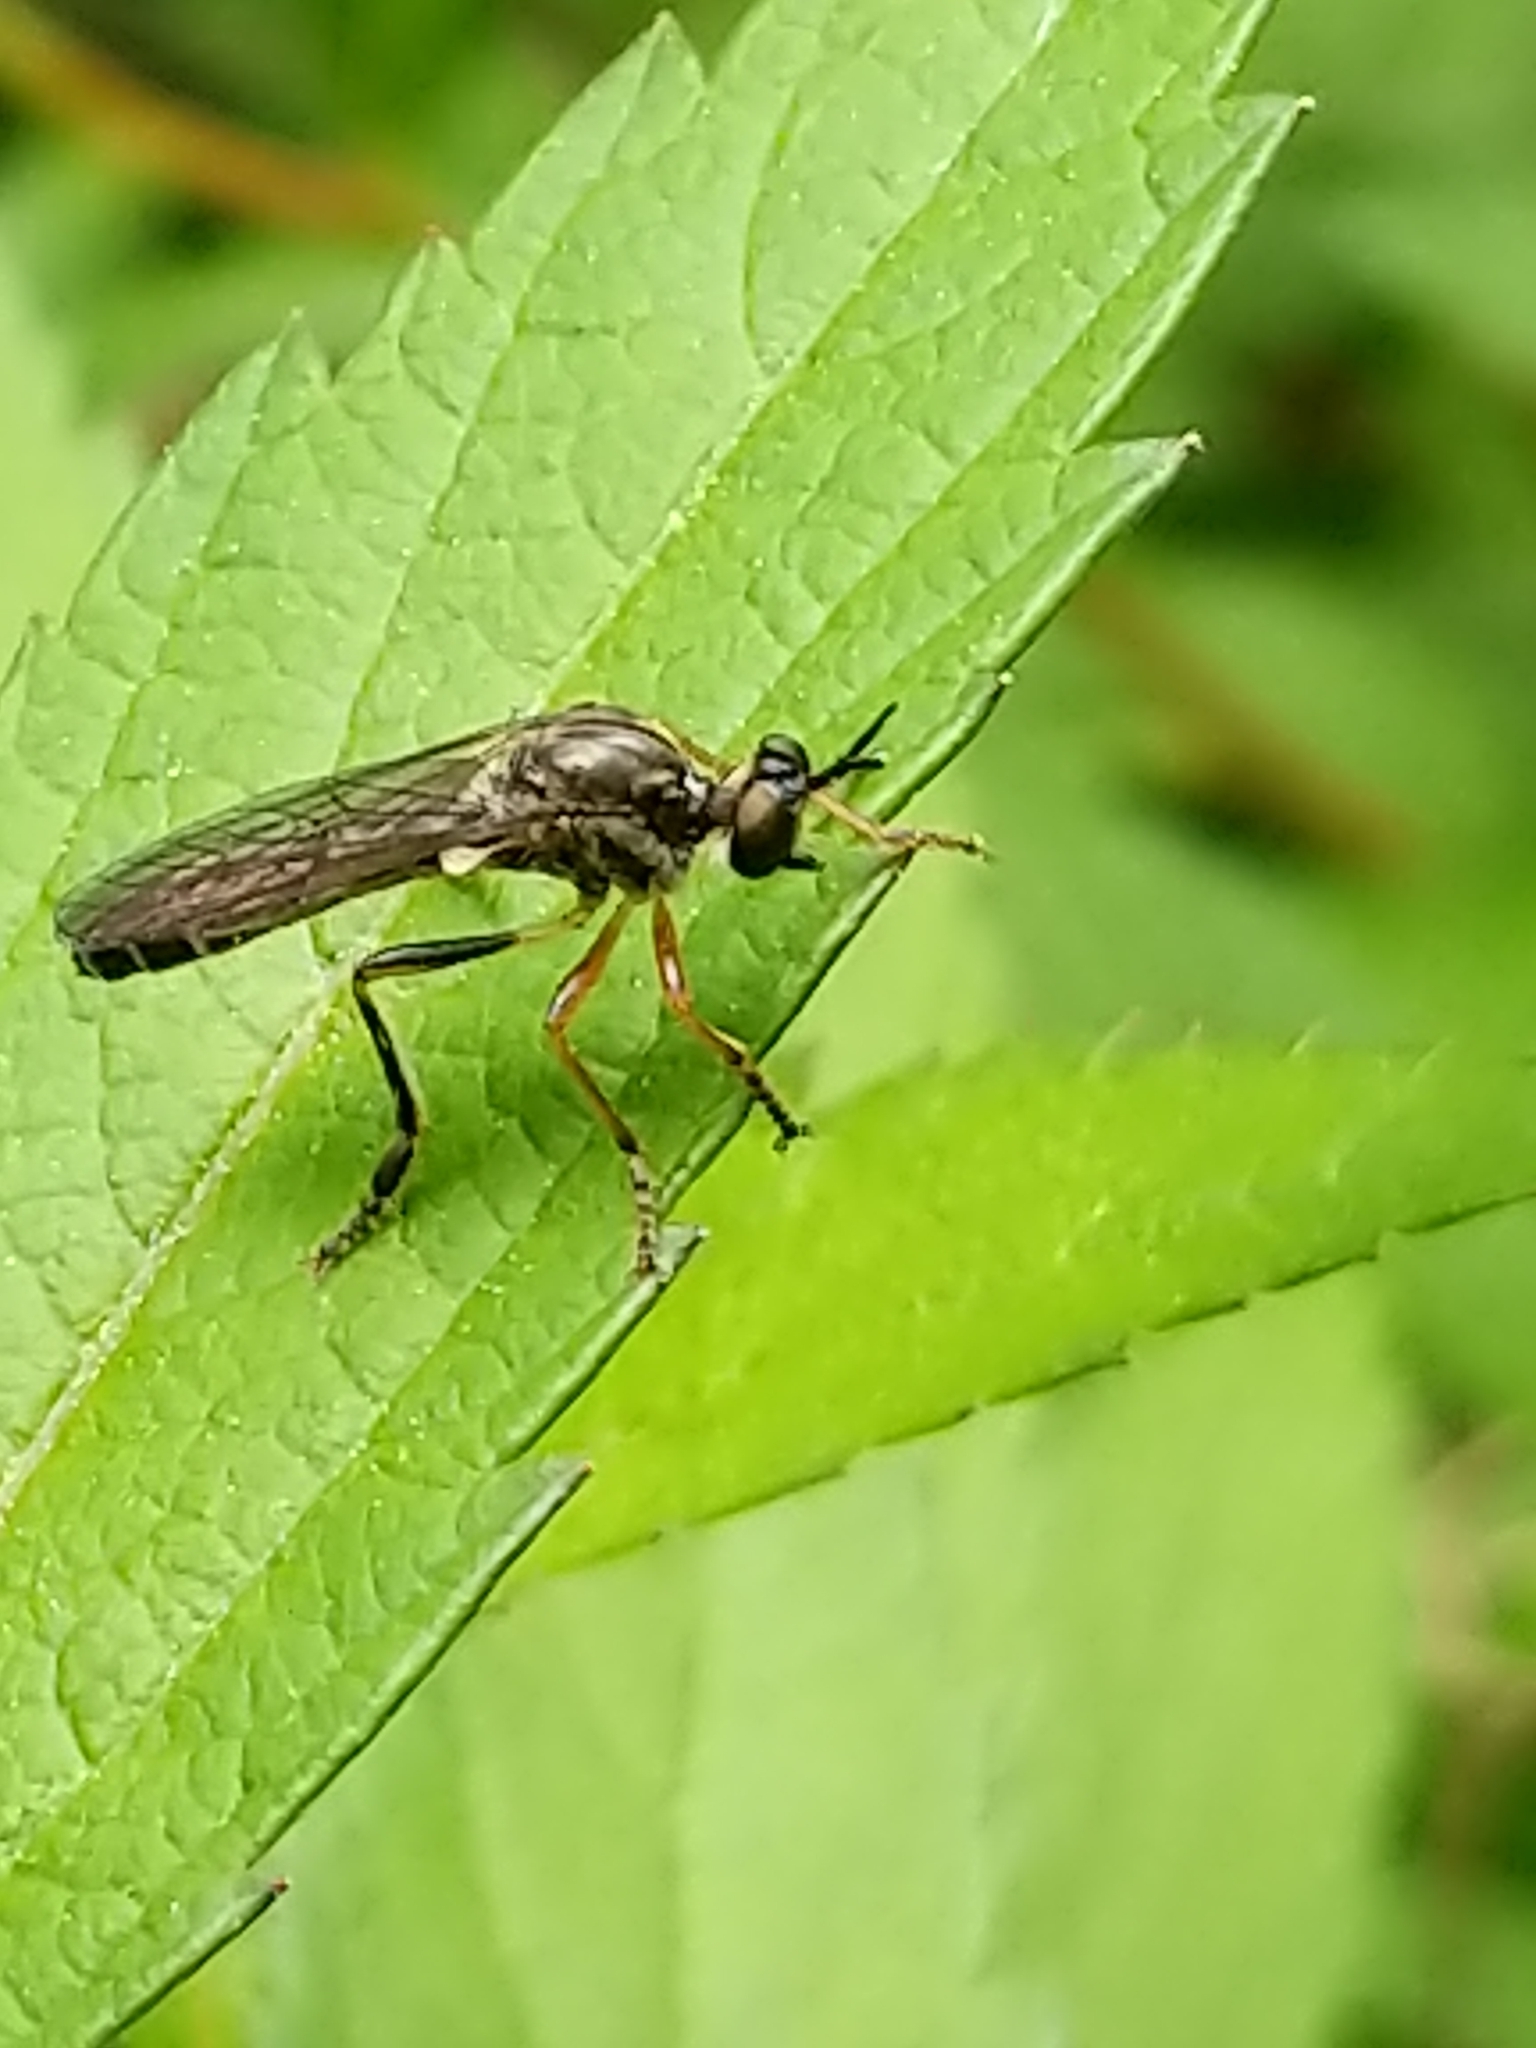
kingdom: Animalia
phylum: Arthropoda
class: Insecta
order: Diptera
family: Asilidae
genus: Dioctria
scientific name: Dioctria hyalipennis
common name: Stripe-legged robberfly
